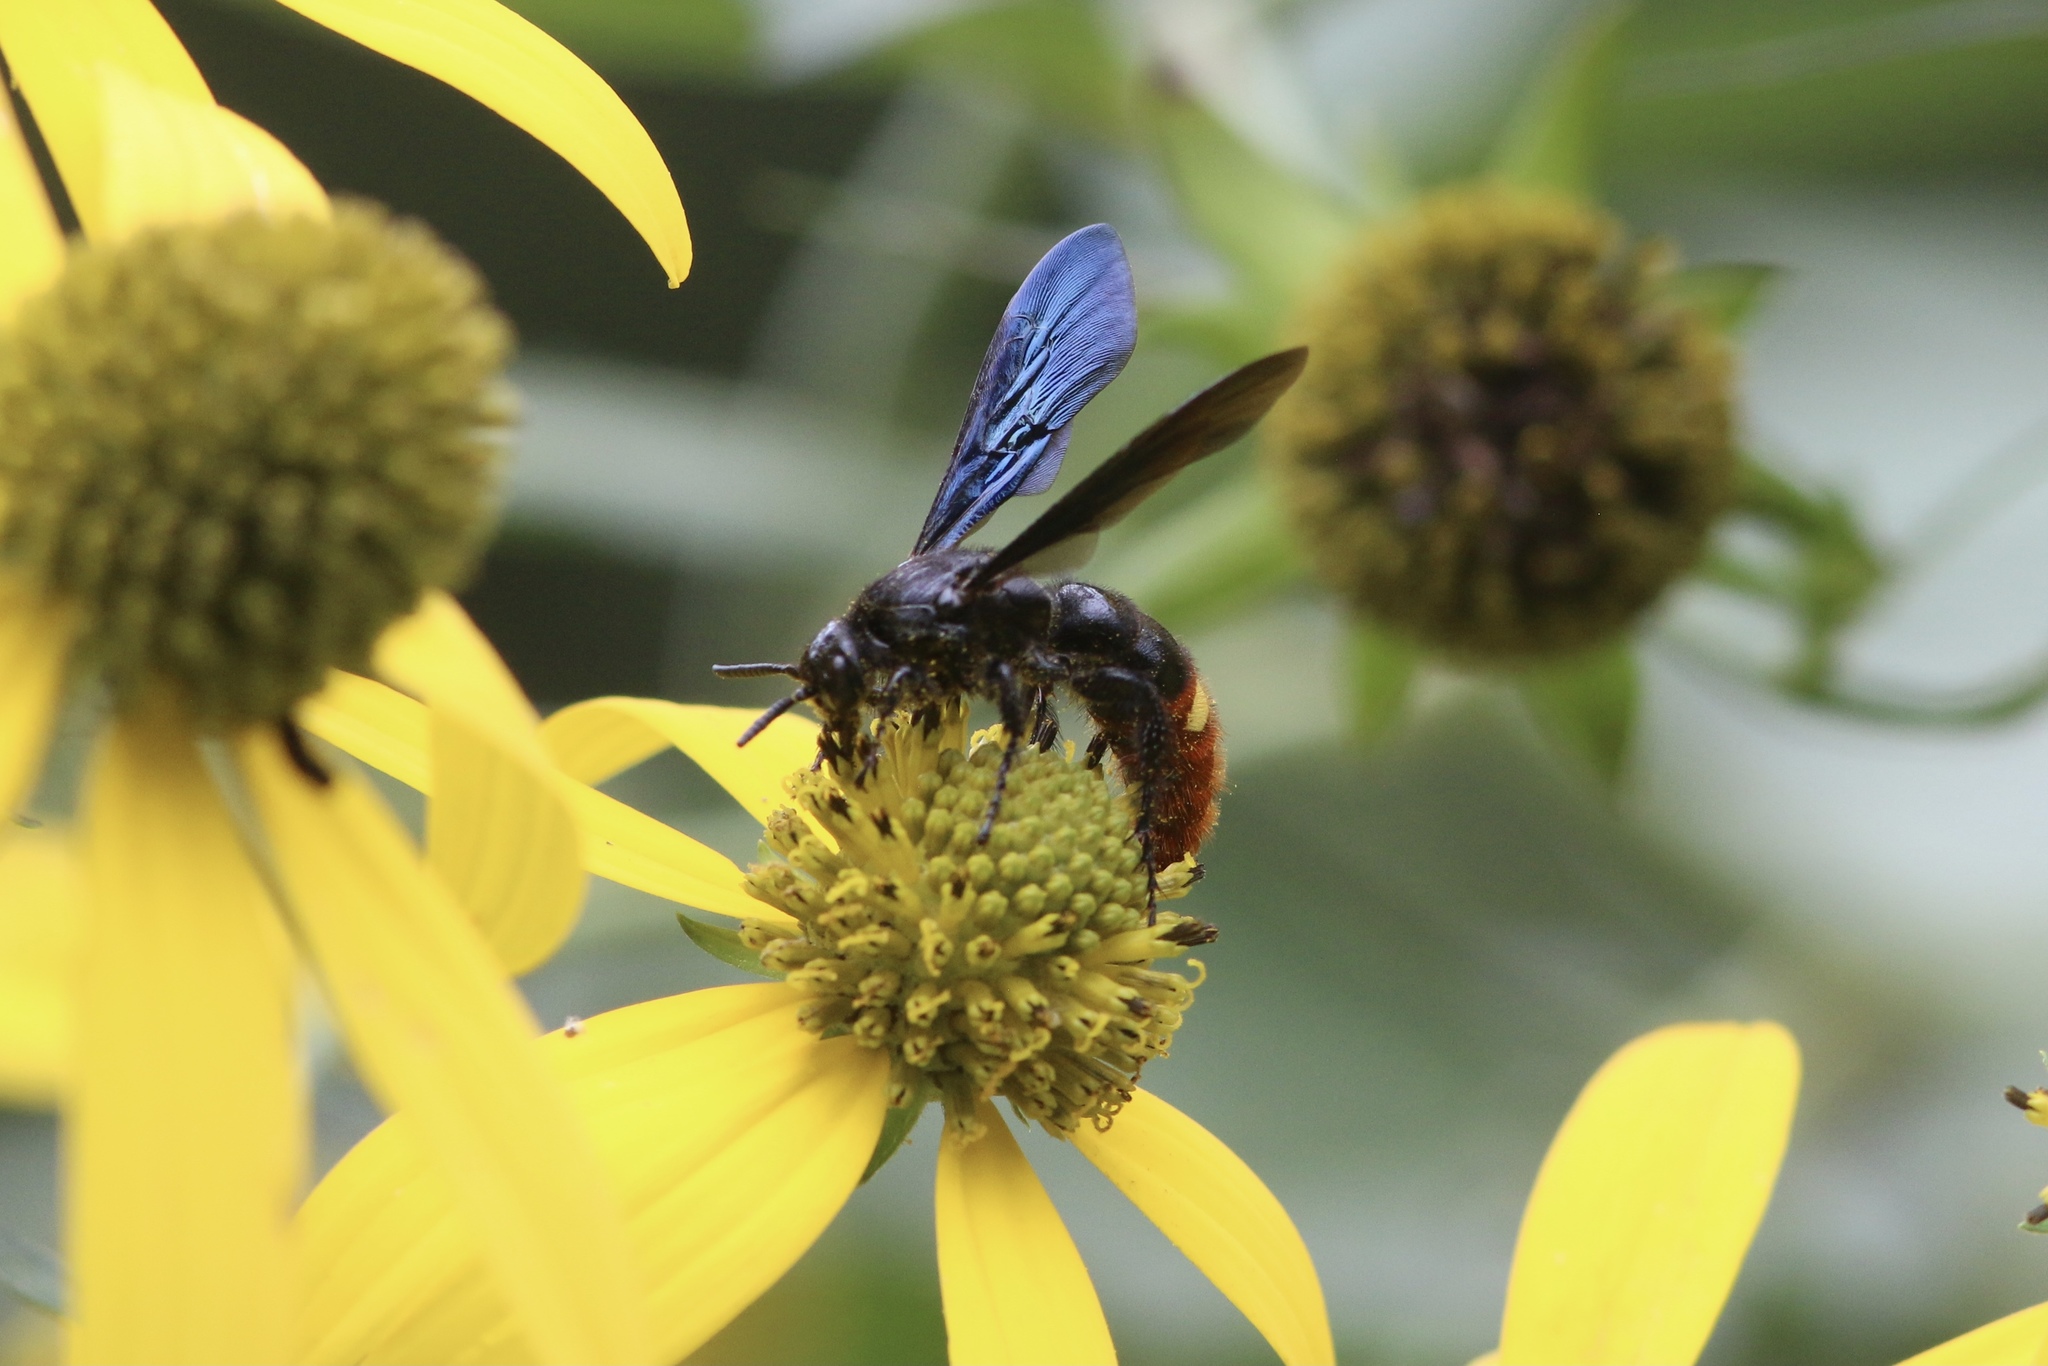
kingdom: Animalia
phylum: Arthropoda
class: Insecta
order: Hymenoptera
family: Scoliidae
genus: Scolia
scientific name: Scolia dubia
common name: Blue-winged scoliid wasp
